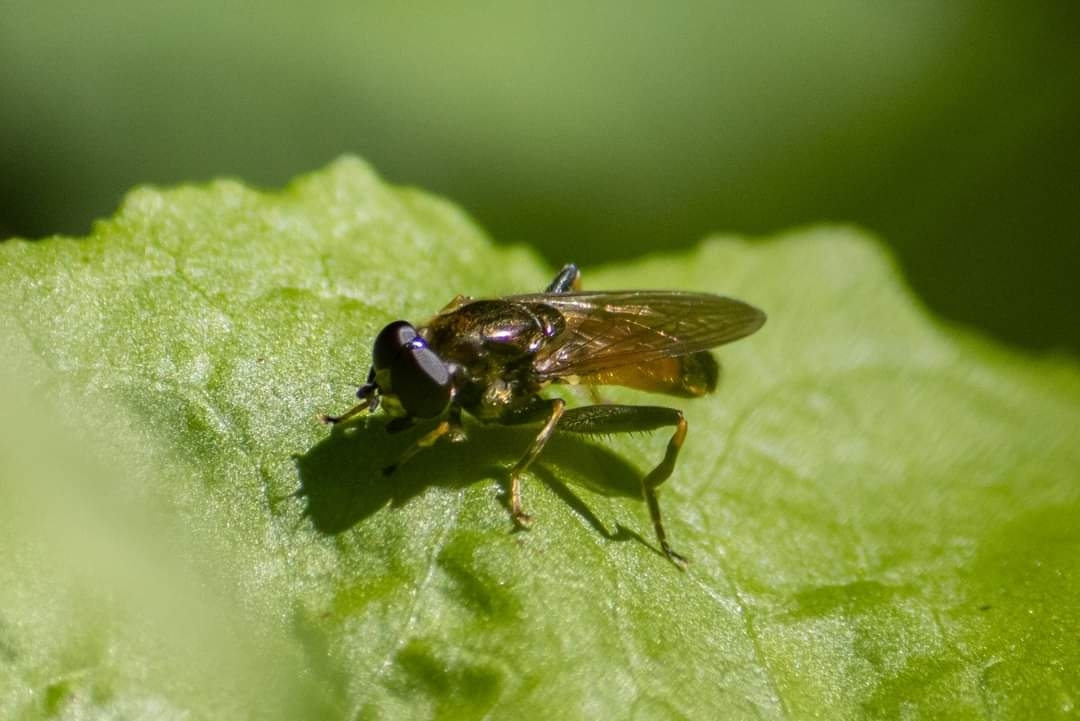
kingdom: Animalia
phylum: Arthropoda
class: Insecta
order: Diptera
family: Syrphidae
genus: Xylota
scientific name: Xylota segnis
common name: Brown-toed forest fly
